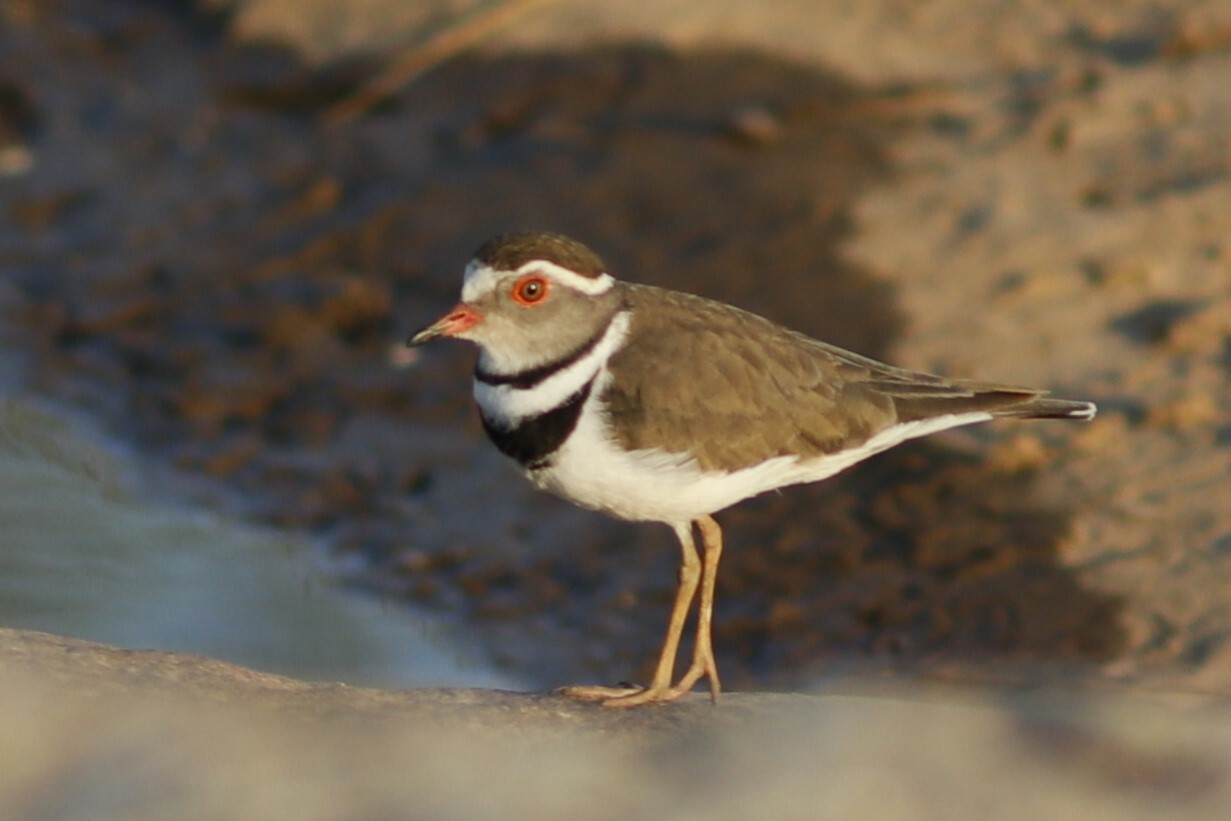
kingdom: Animalia
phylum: Chordata
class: Aves
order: Charadriiformes
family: Charadriidae
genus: Charadrius
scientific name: Charadrius tricollaris
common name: Three-banded plover
